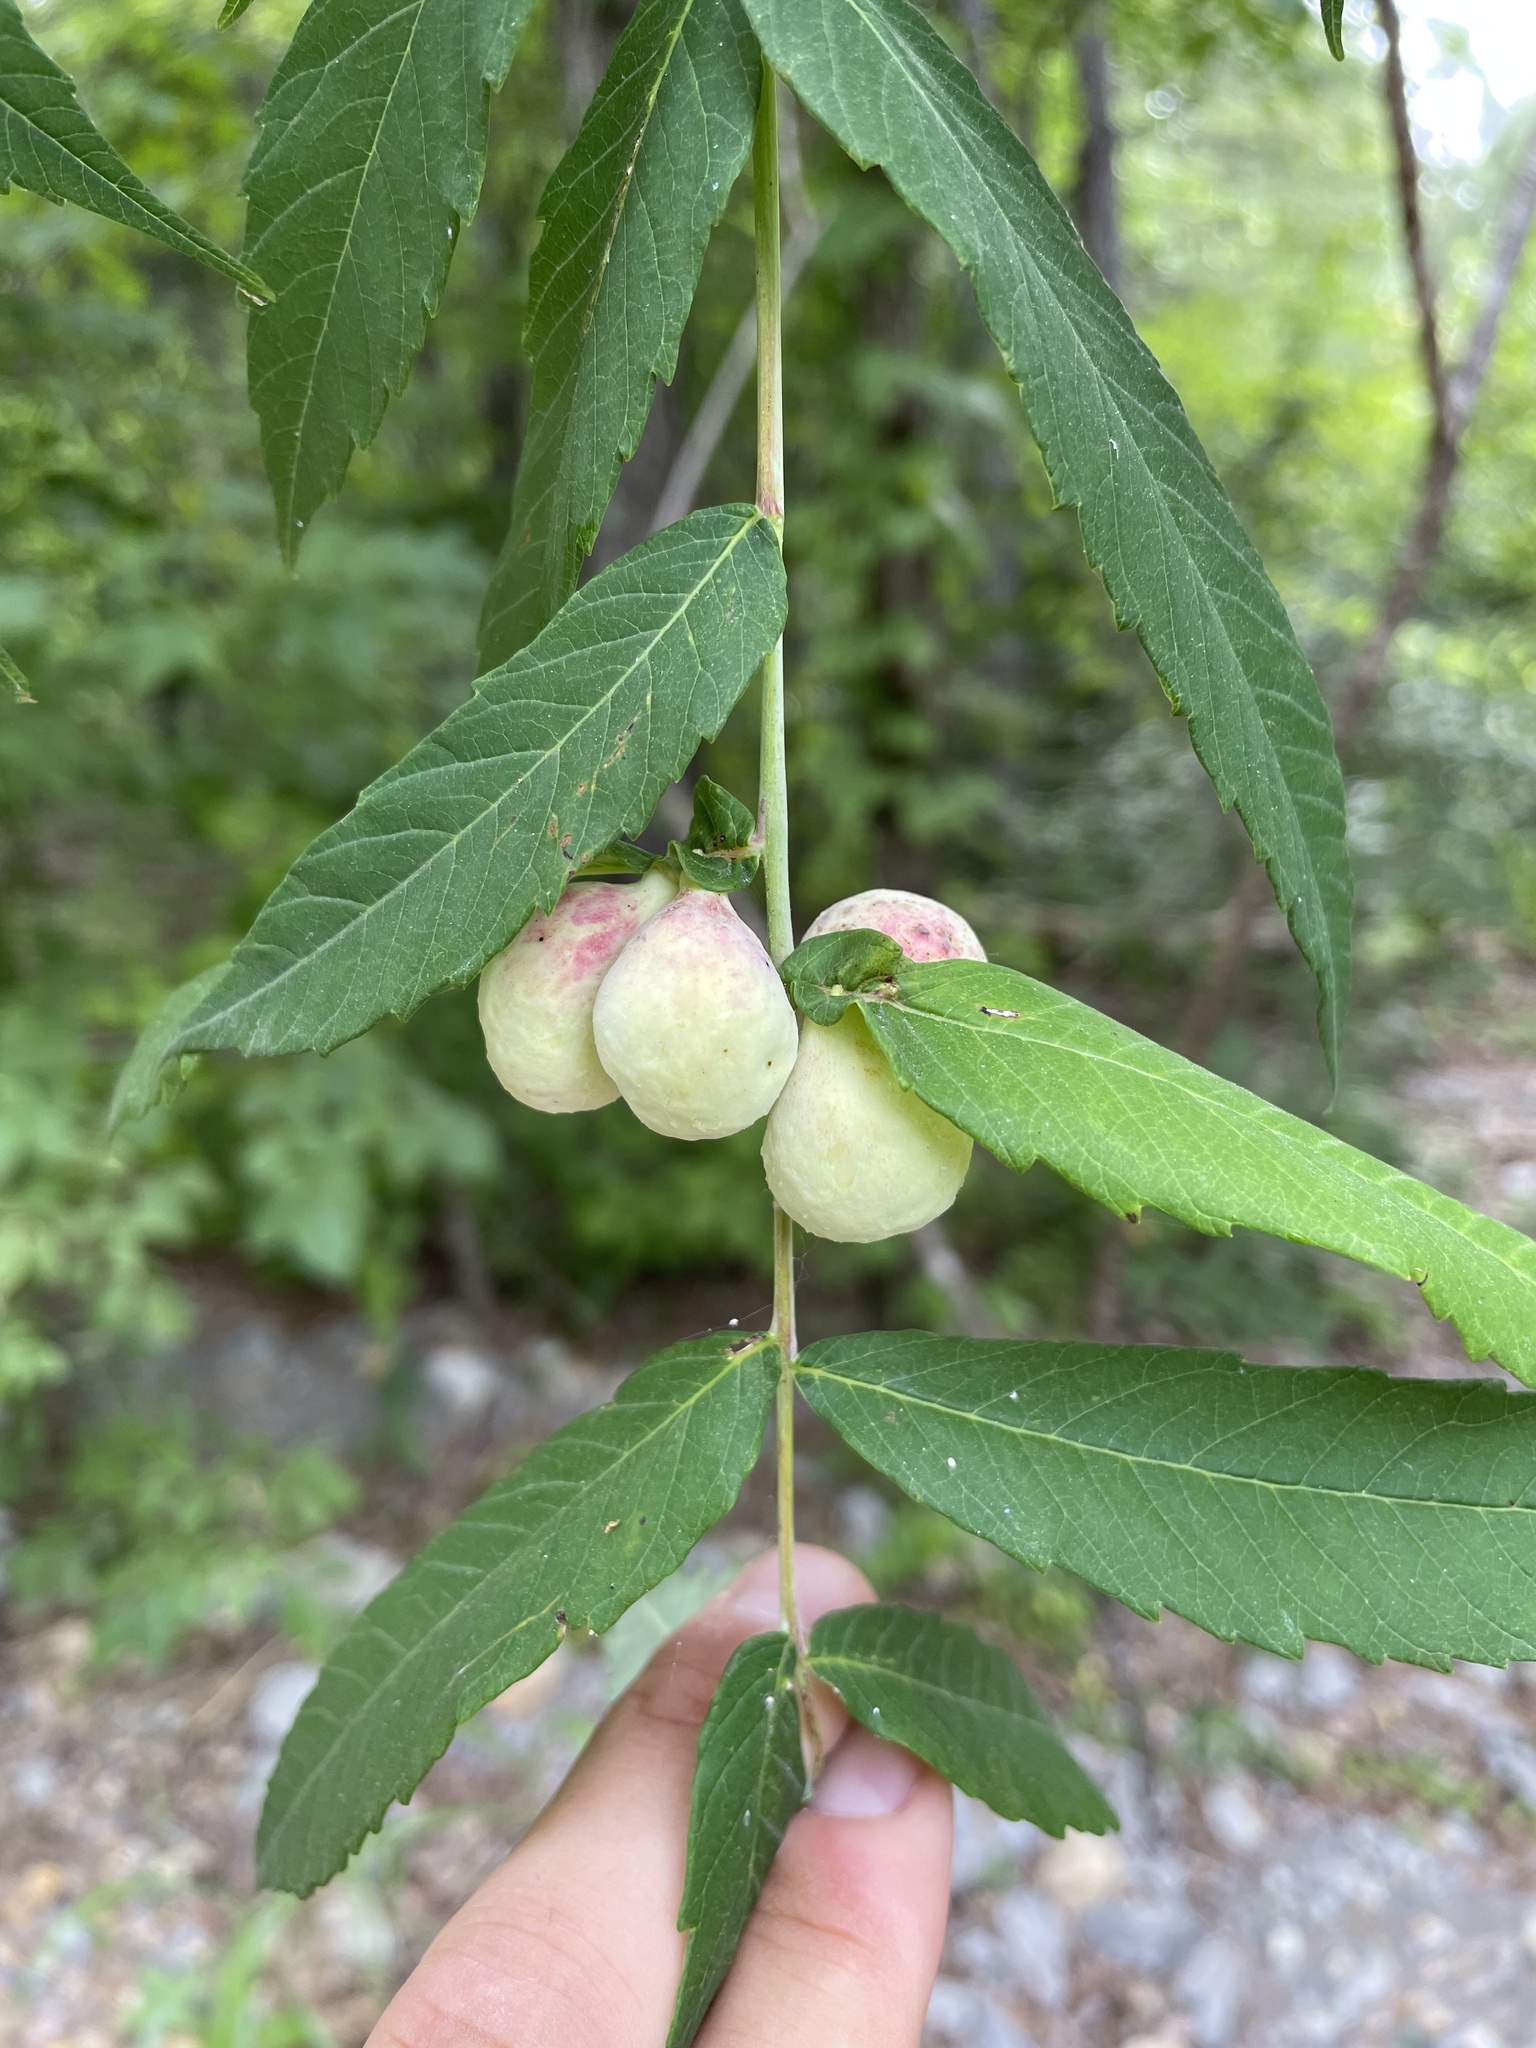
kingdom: Animalia
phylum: Arthropoda
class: Insecta
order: Hemiptera
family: Aphididae
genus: Melaphis
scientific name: Melaphis rhois
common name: Sumac gall aphid
